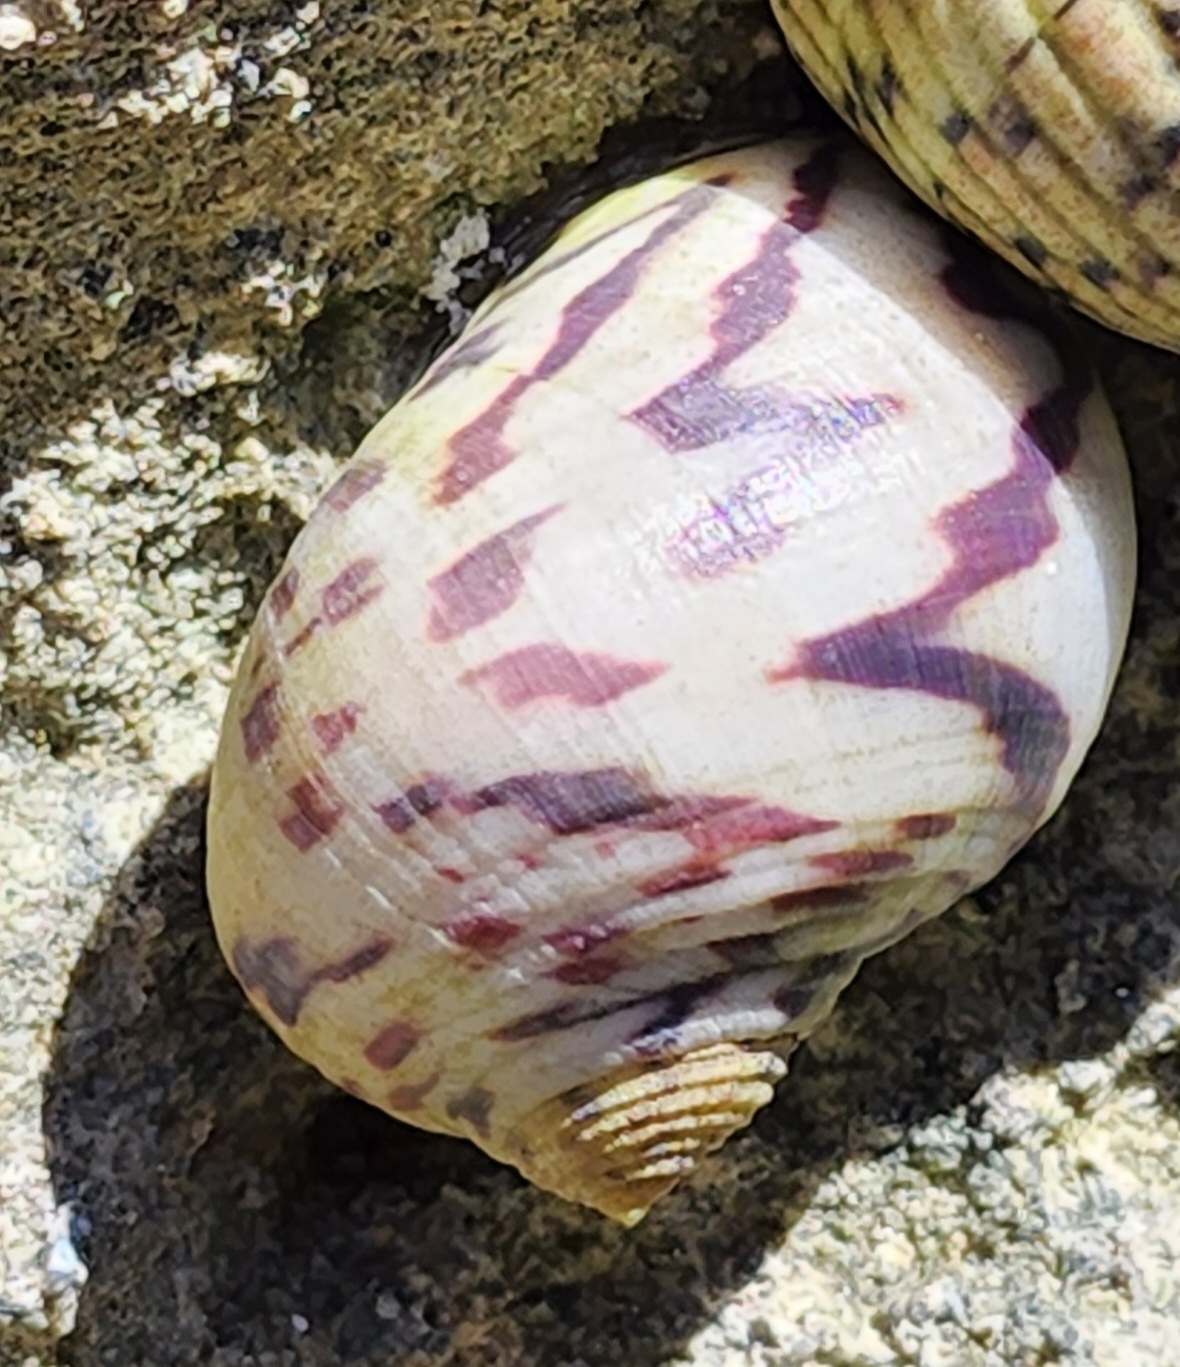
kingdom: Animalia
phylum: Mollusca
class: Gastropoda
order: Cycloneritida
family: Neritidae
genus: Nerita
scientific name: Nerita peloronta
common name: Bleeding tooth
